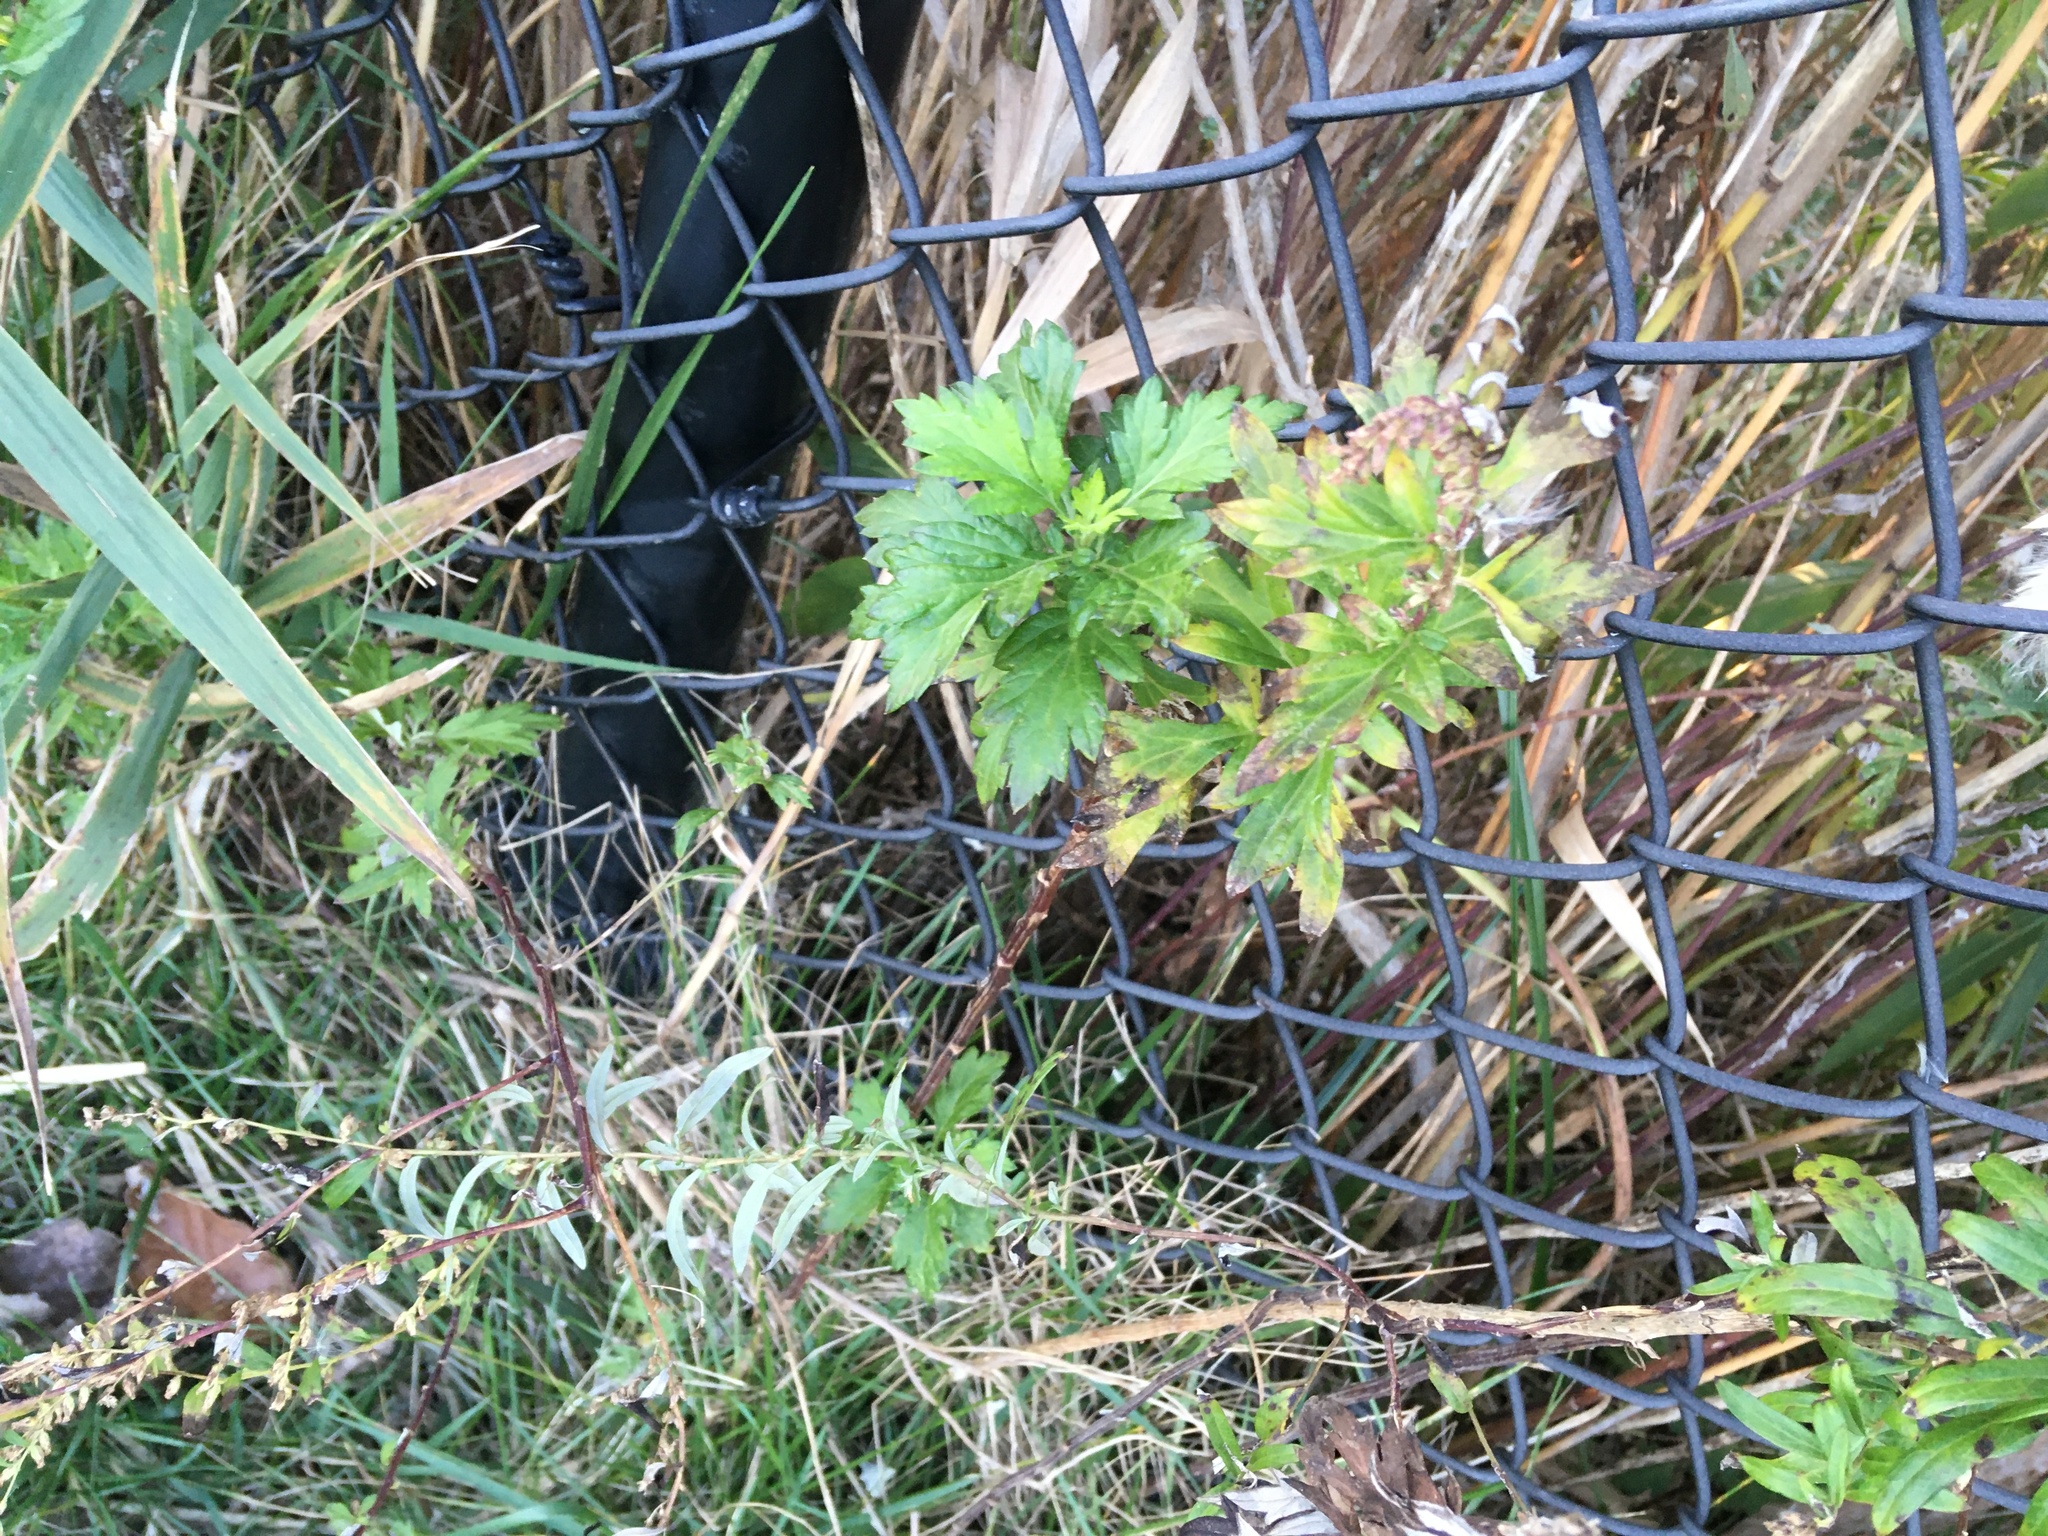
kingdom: Plantae
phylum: Tracheophyta
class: Magnoliopsida
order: Asterales
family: Asteraceae
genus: Artemisia
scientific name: Artemisia vulgaris
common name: Mugwort
